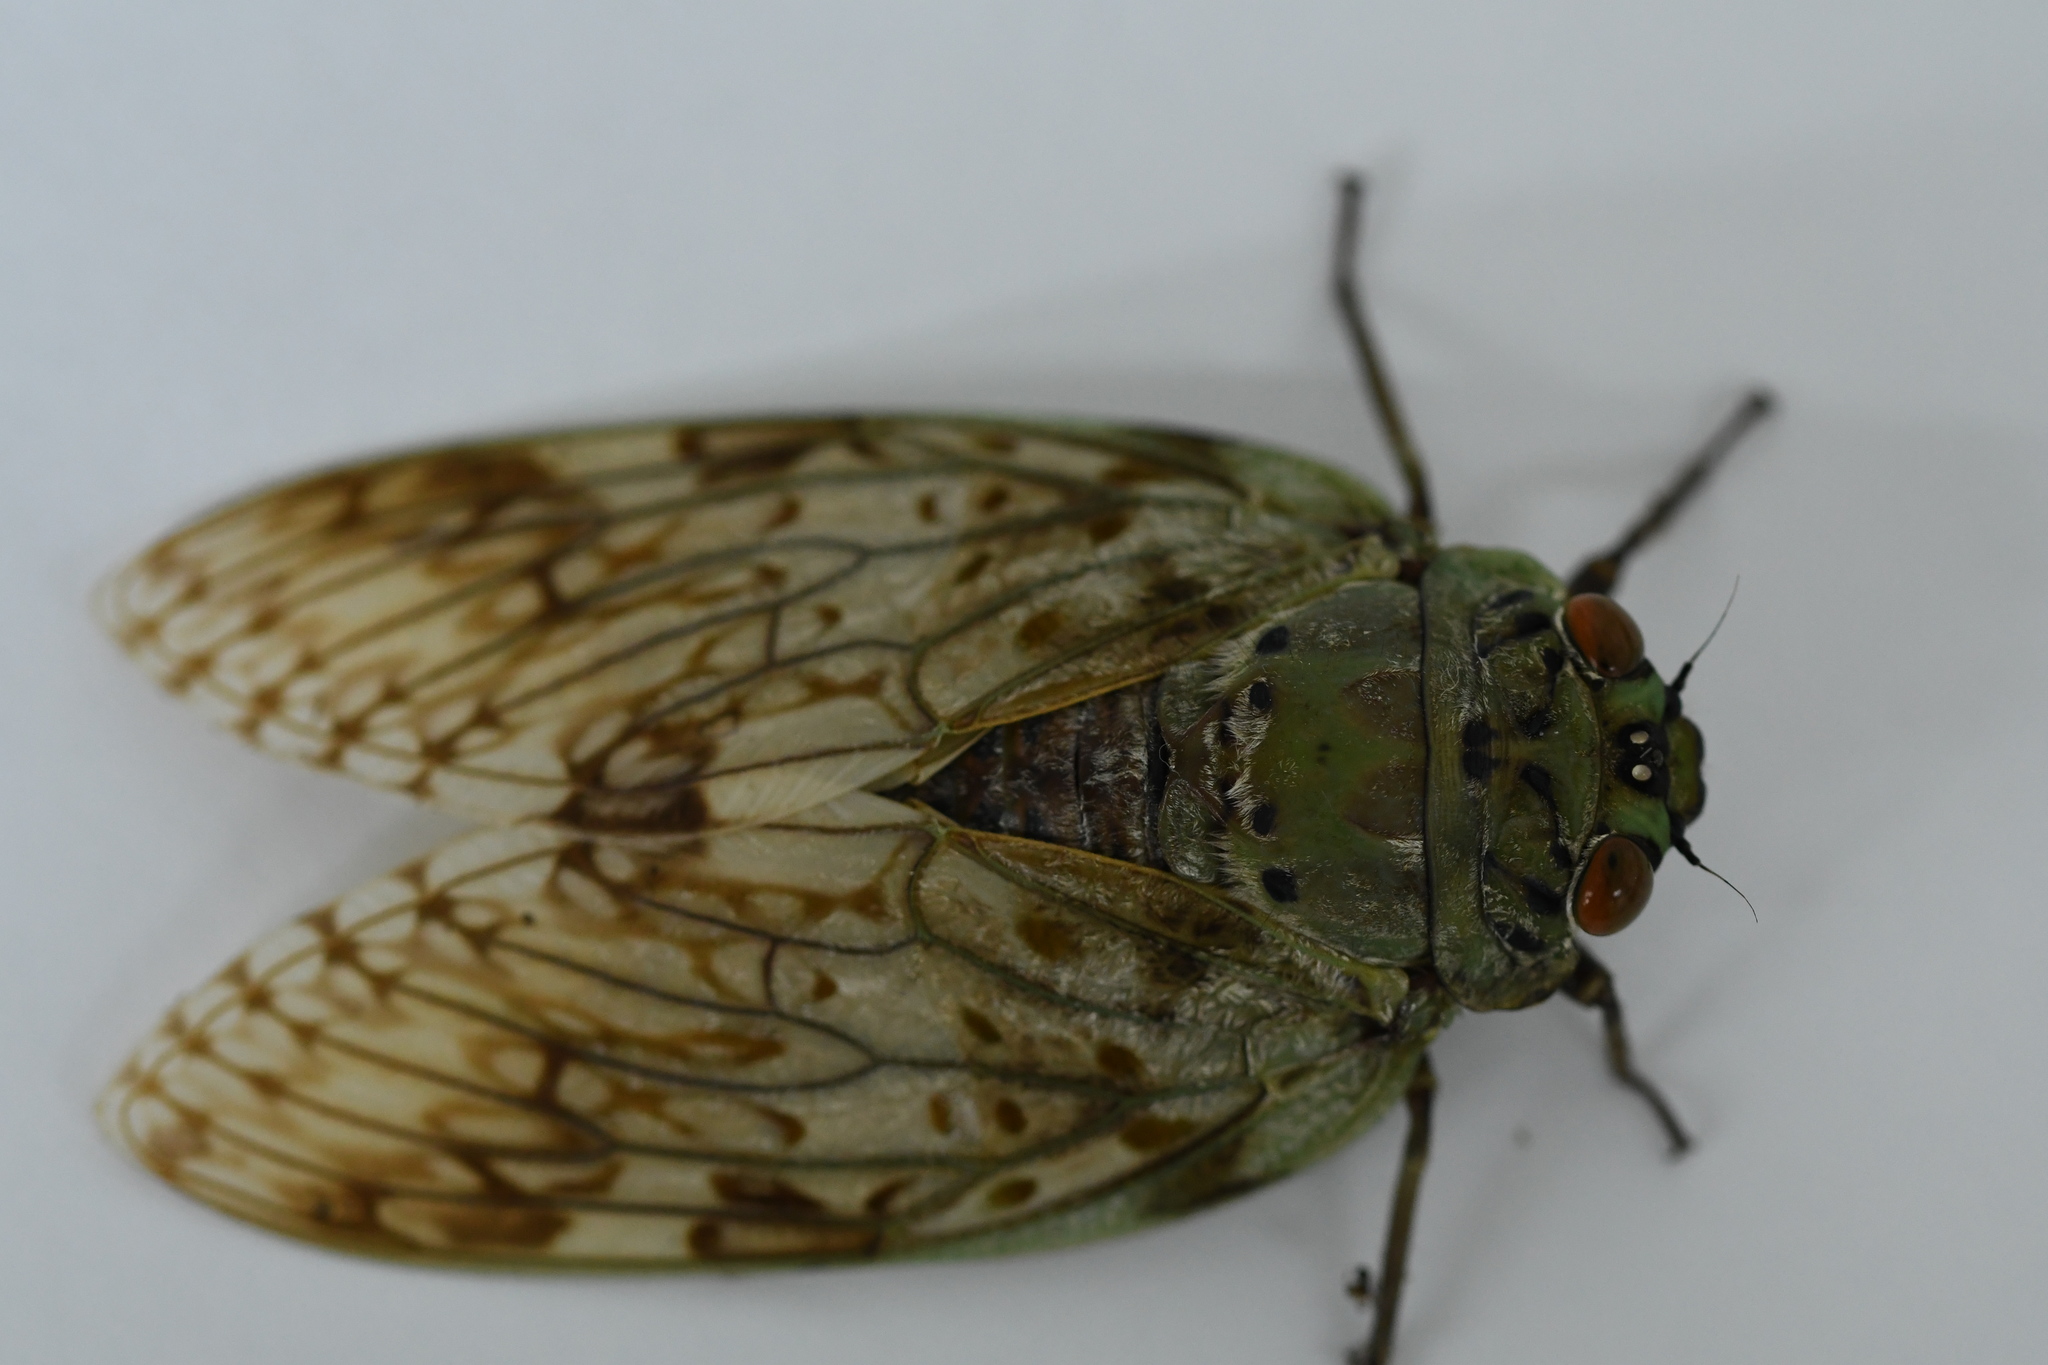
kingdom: Animalia
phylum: Arthropoda
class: Insecta
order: Hemiptera
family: Cicadidae
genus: Yanga
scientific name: Yanga andriana
